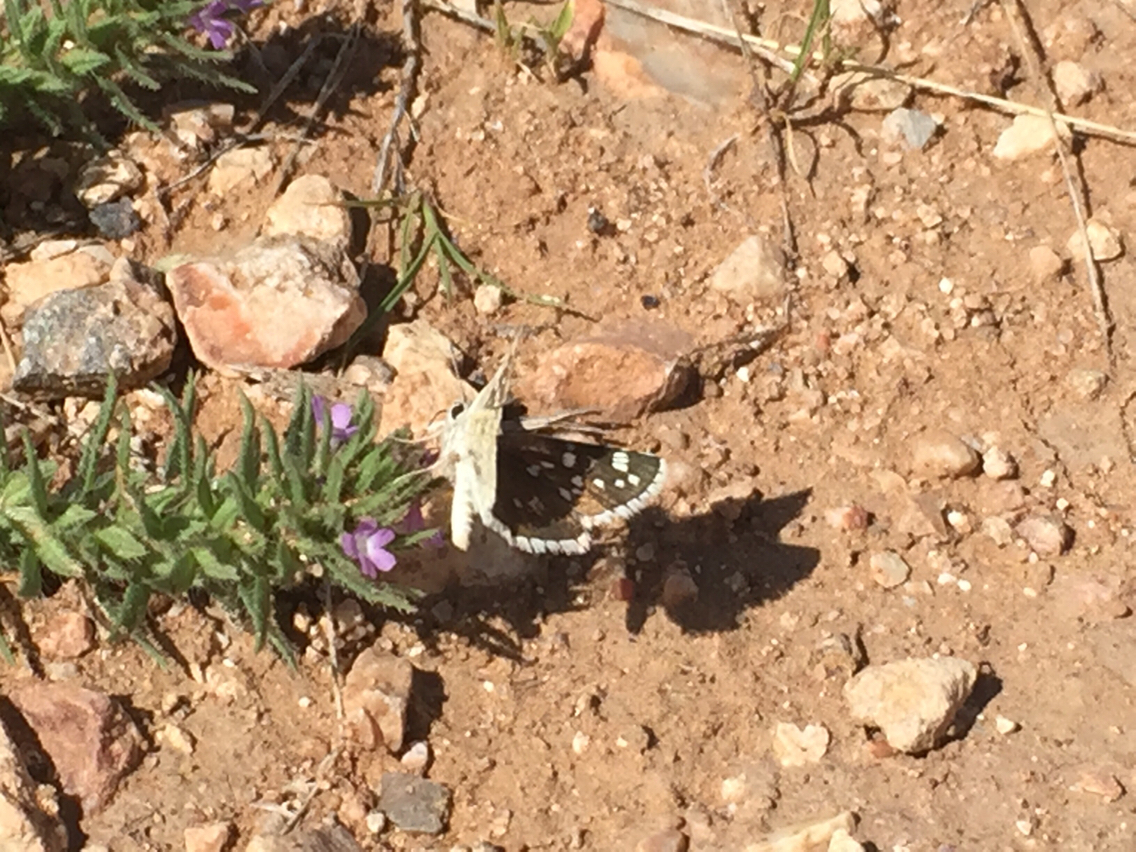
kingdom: Animalia
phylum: Arthropoda
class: Insecta
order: Lepidoptera
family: Hesperiidae
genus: Pyrgus
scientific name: Pyrgus scriptura
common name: Small checkered-skipper
